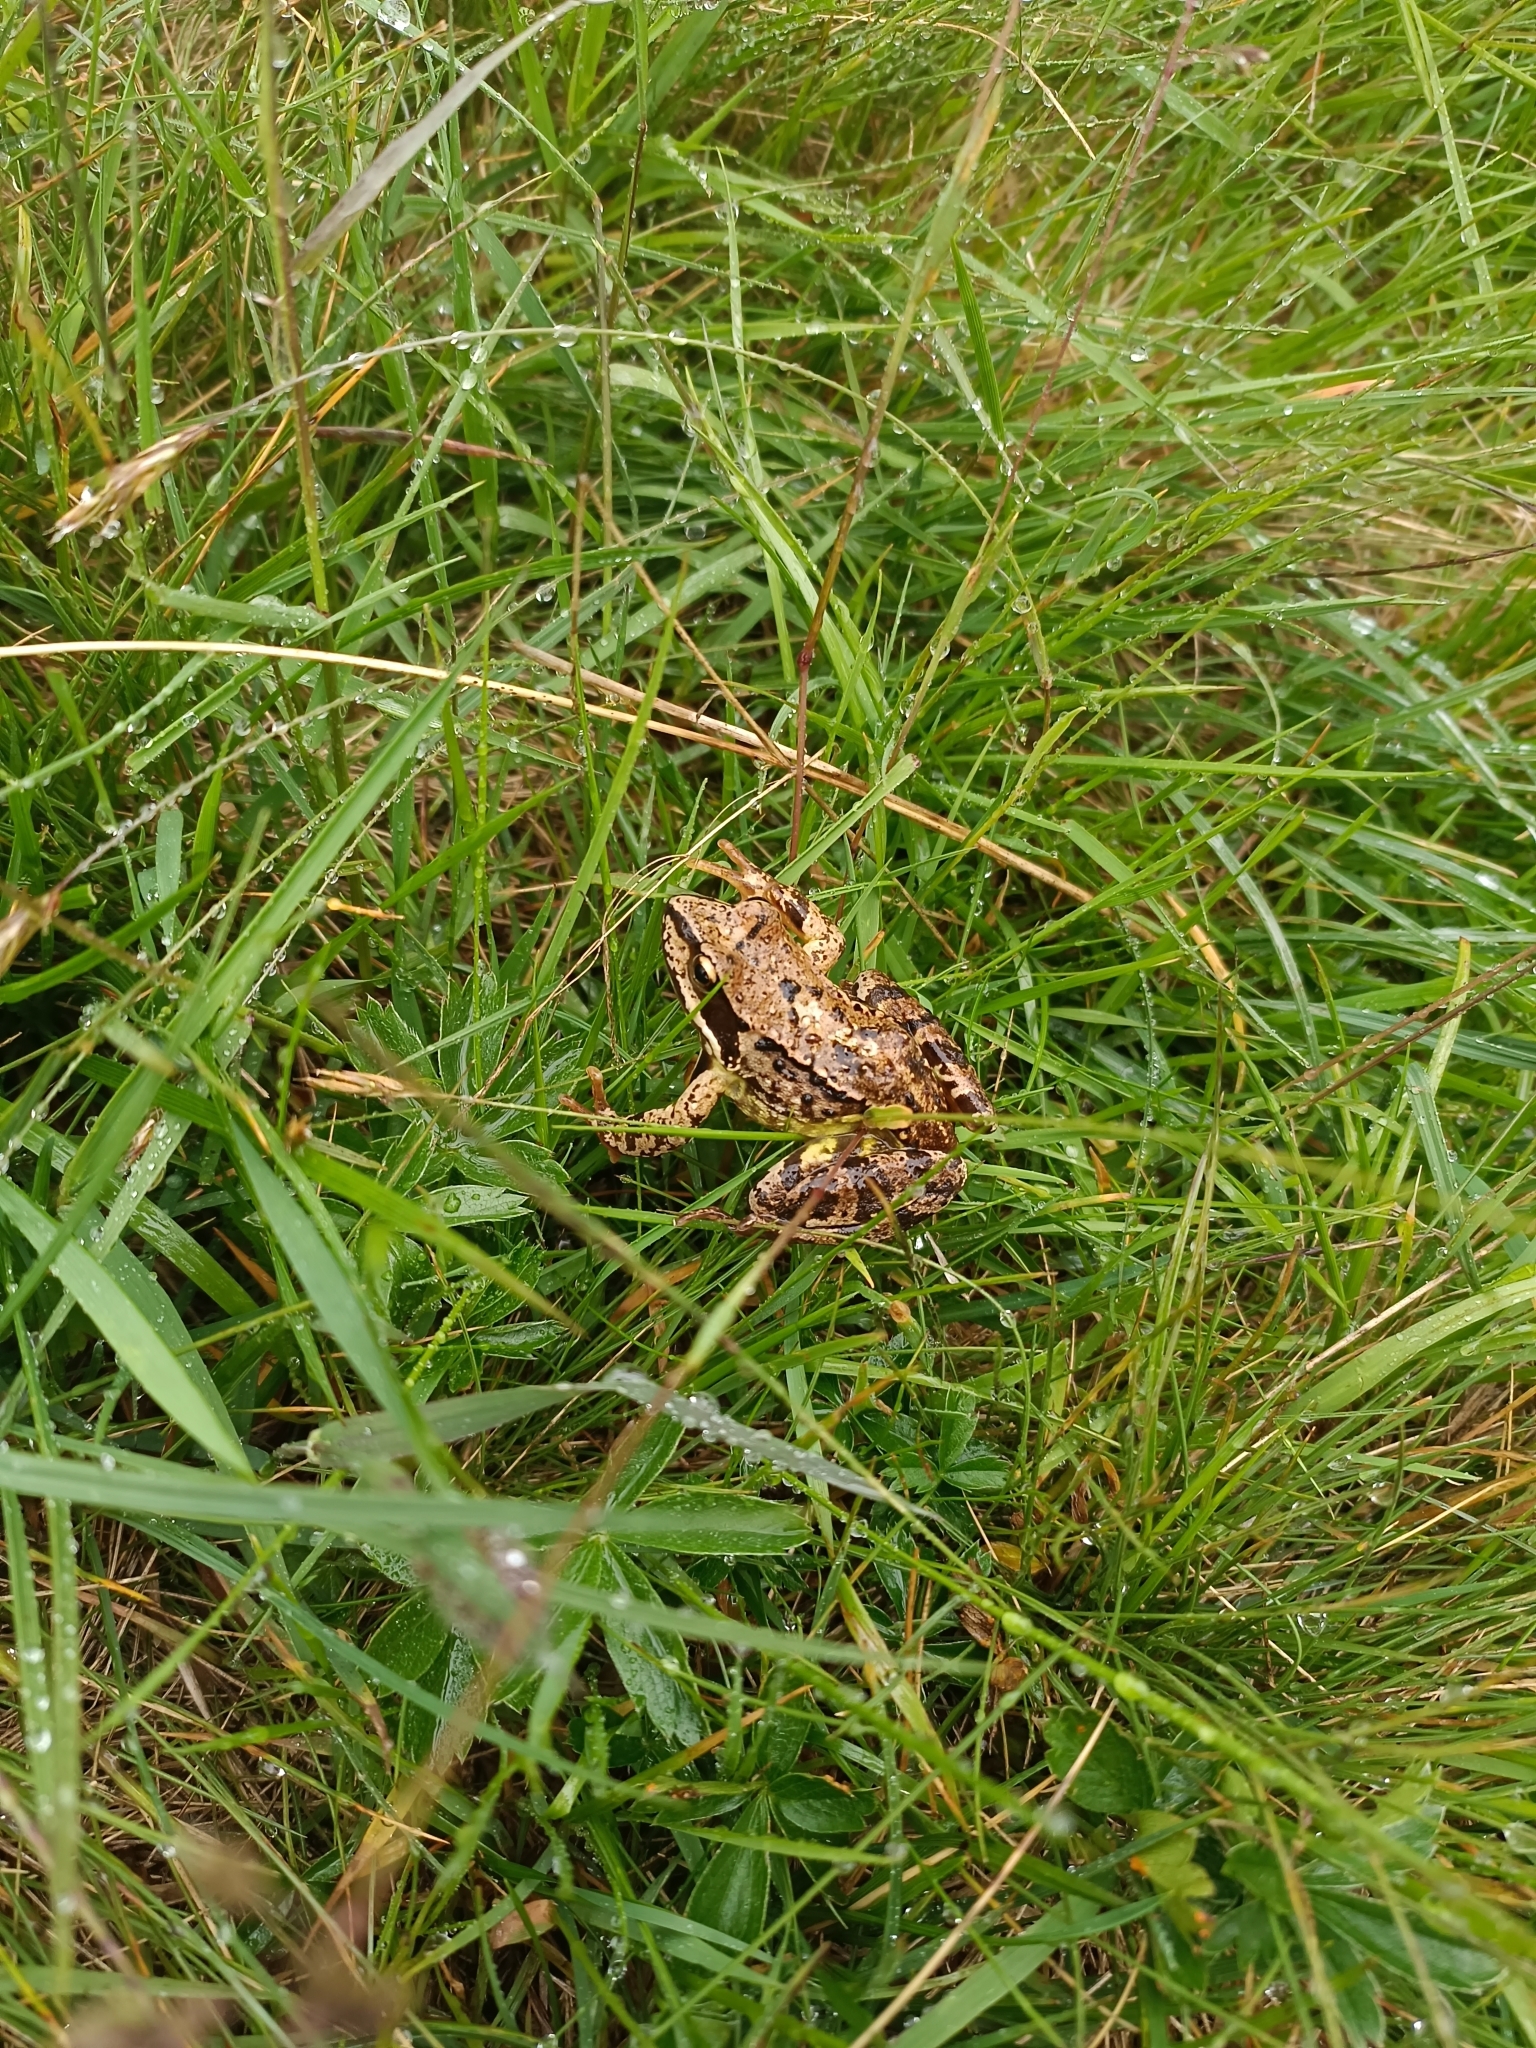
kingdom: Animalia
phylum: Chordata
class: Amphibia
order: Anura
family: Ranidae
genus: Rana
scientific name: Rana temporaria
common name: Common frog
